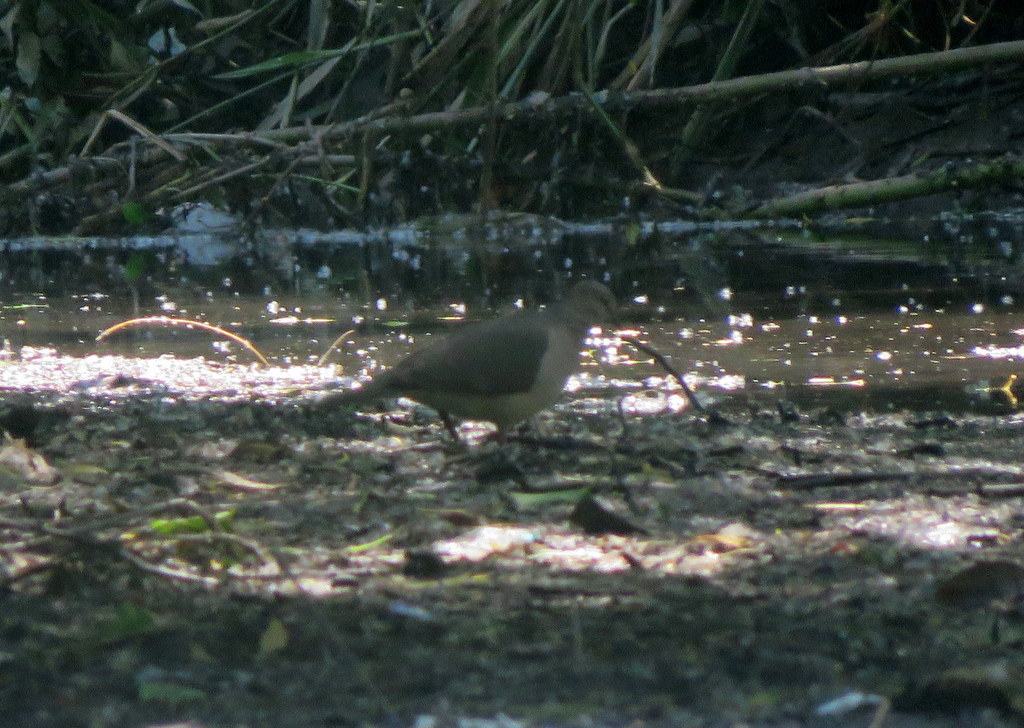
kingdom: Animalia
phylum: Chordata
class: Aves
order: Columbiformes
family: Columbidae
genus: Leptotila
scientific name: Leptotila verreauxi
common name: White-tipped dove
